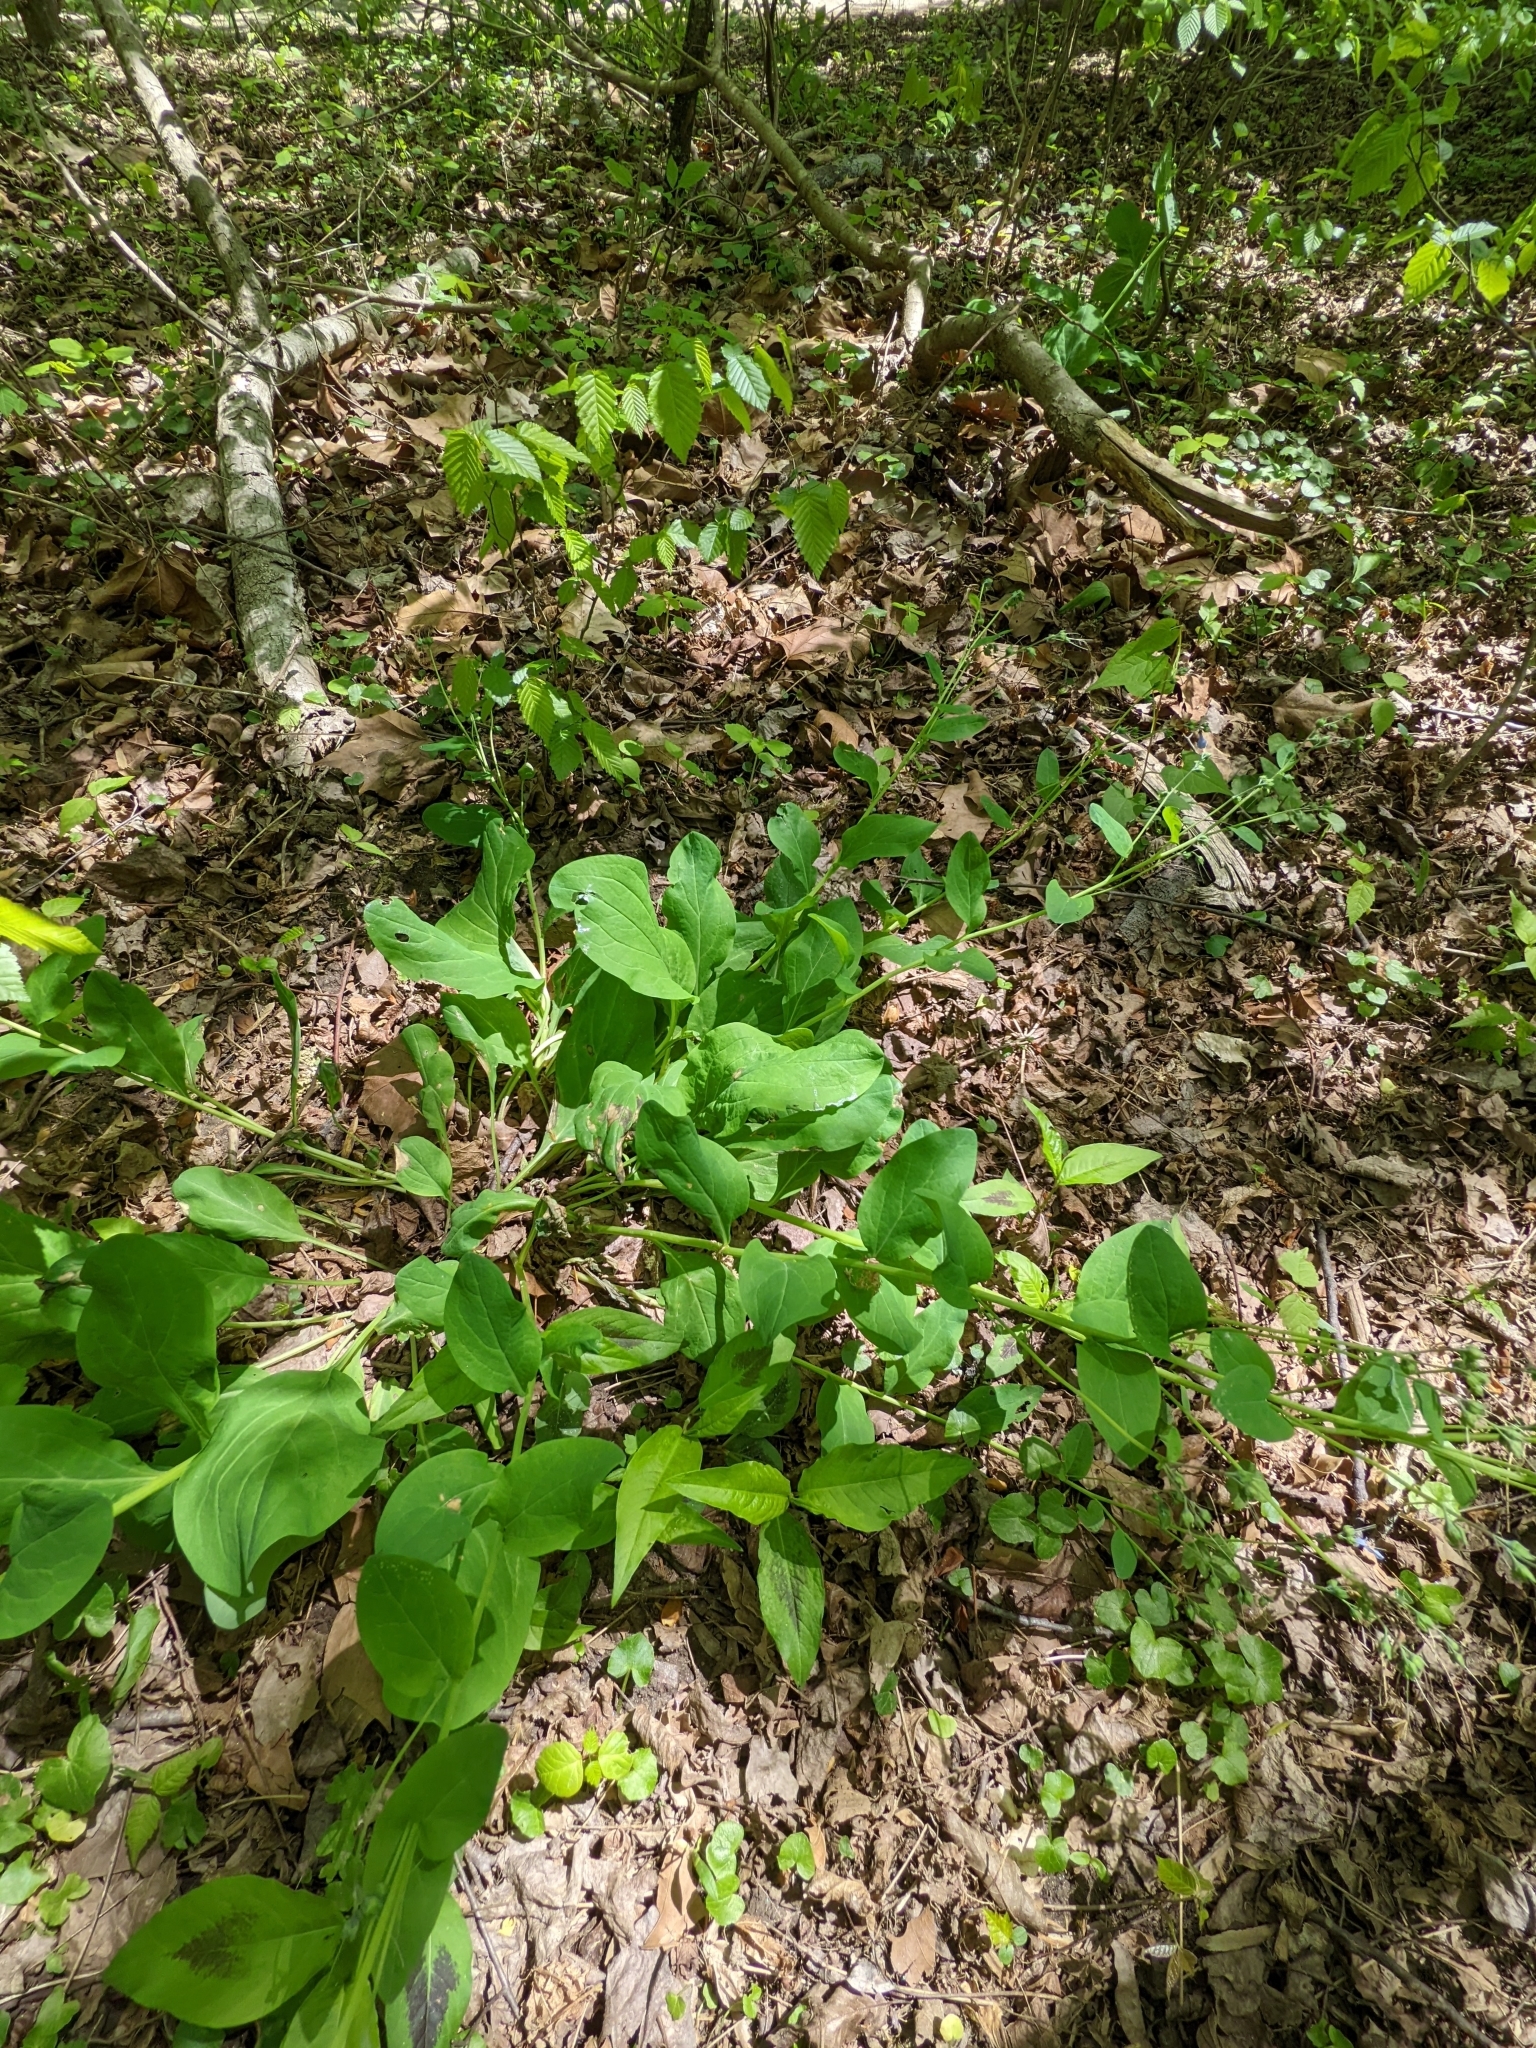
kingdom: Plantae
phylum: Tracheophyta
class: Magnoliopsida
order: Boraginales
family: Boraginaceae
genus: Mertensia
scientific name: Mertensia virginica
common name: Virginia bluebells
